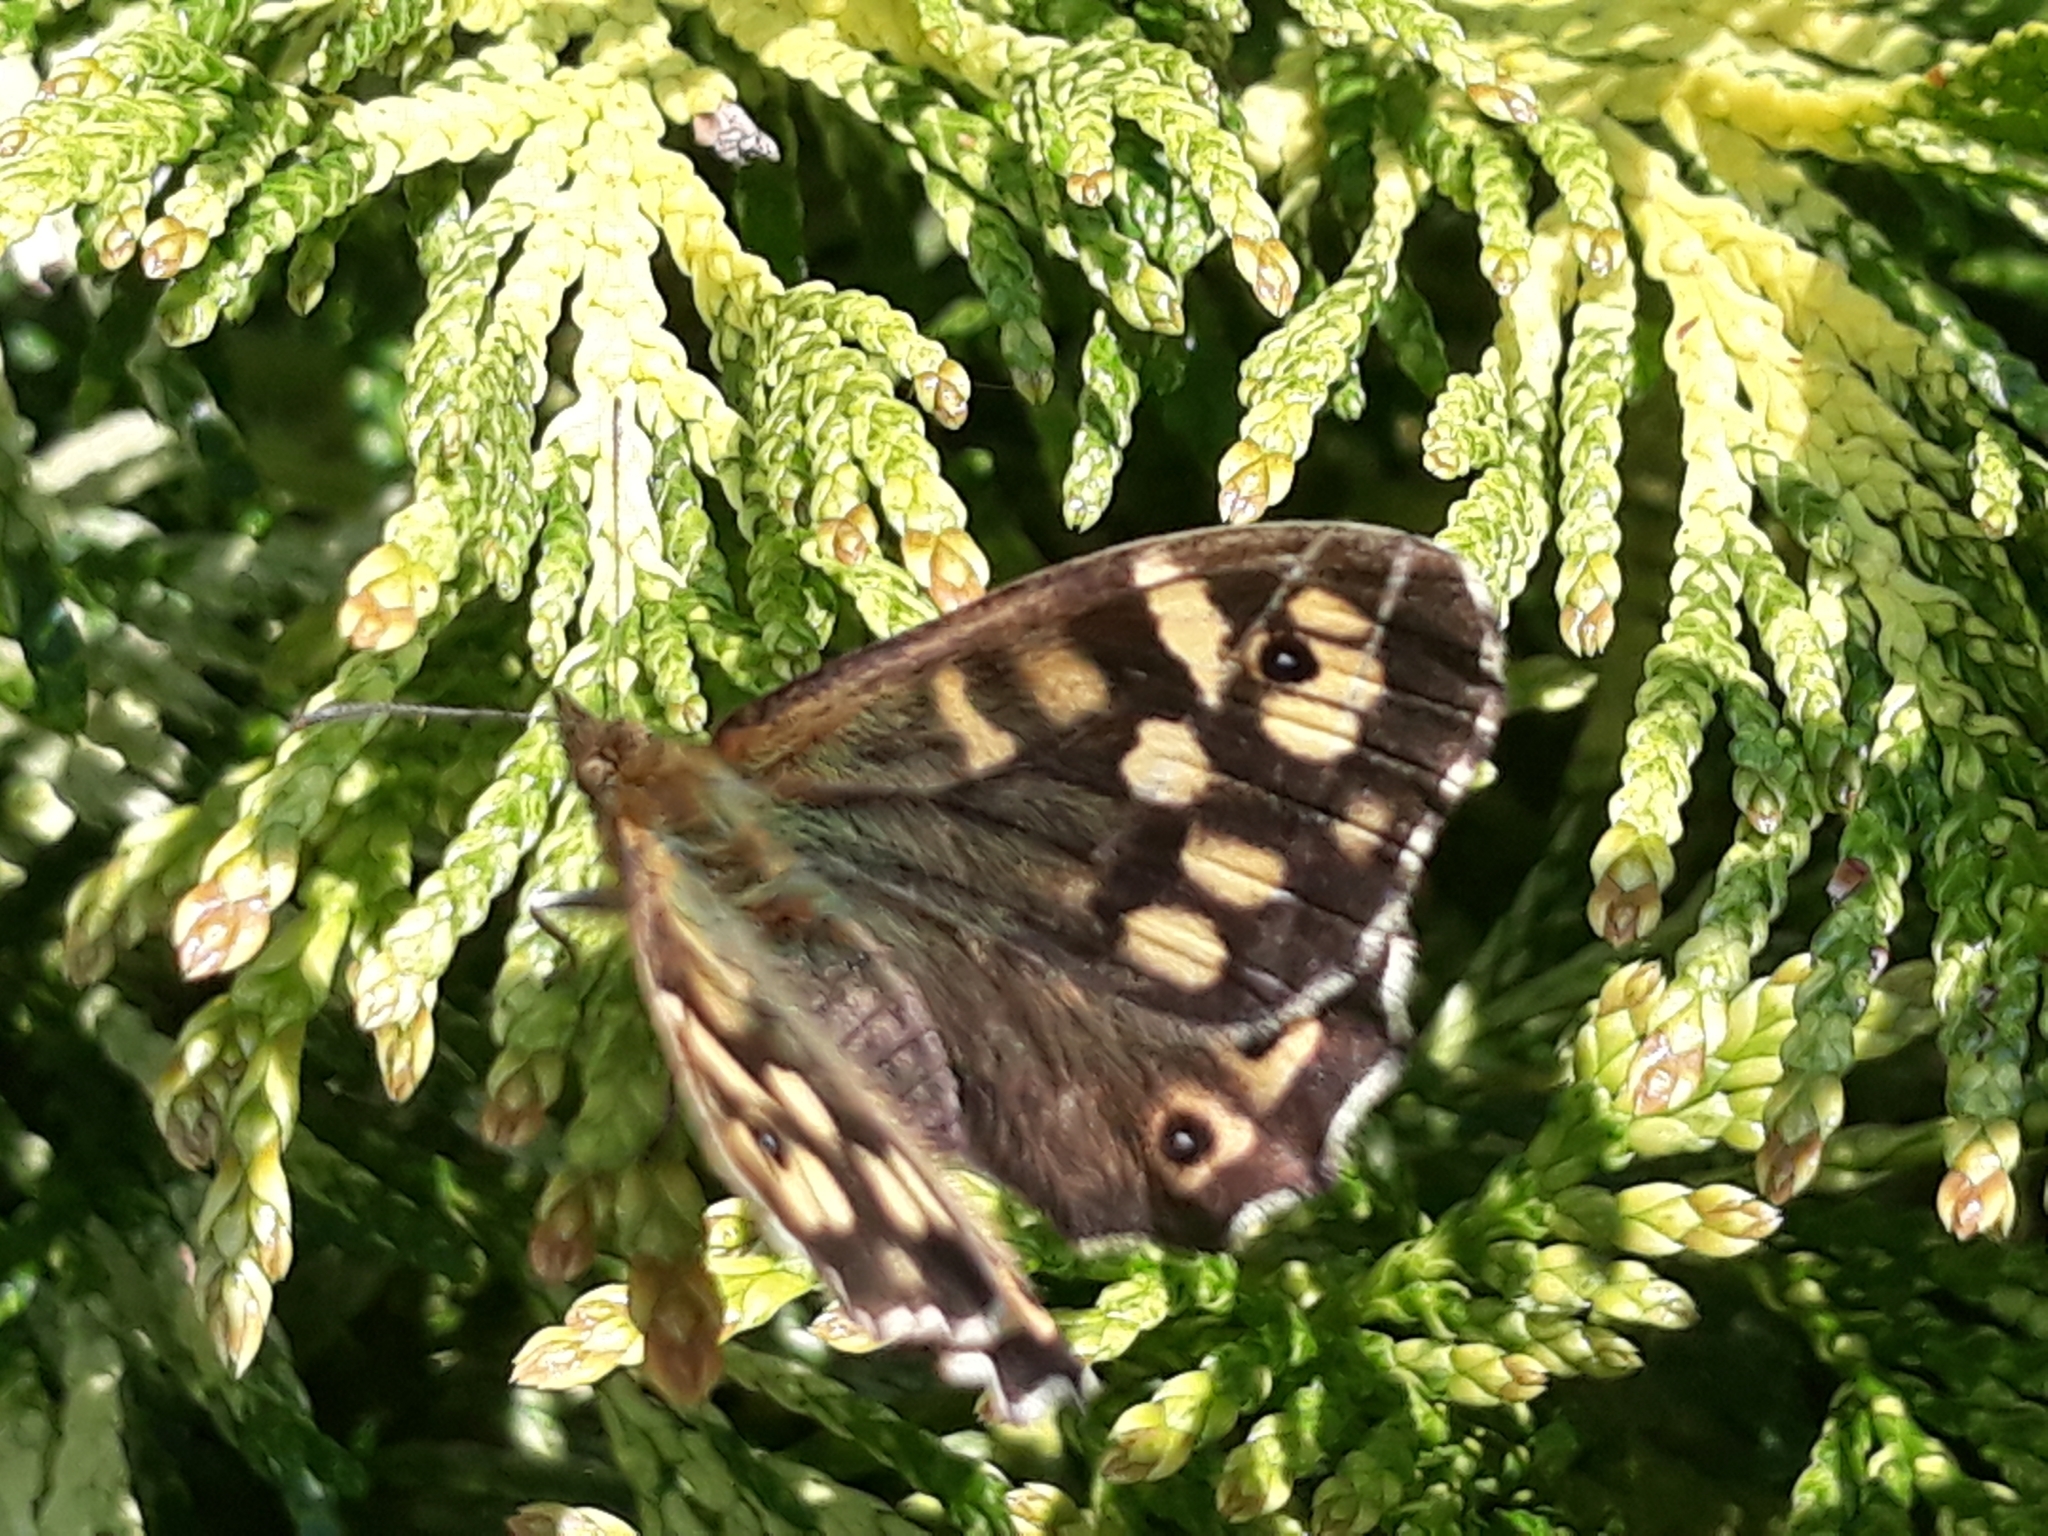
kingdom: Animalia
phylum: Arthropoda
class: Insecta
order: Lepidoptera
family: Nymphalidae
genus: Pararge
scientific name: Pararge aegeria
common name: Speckled wood
